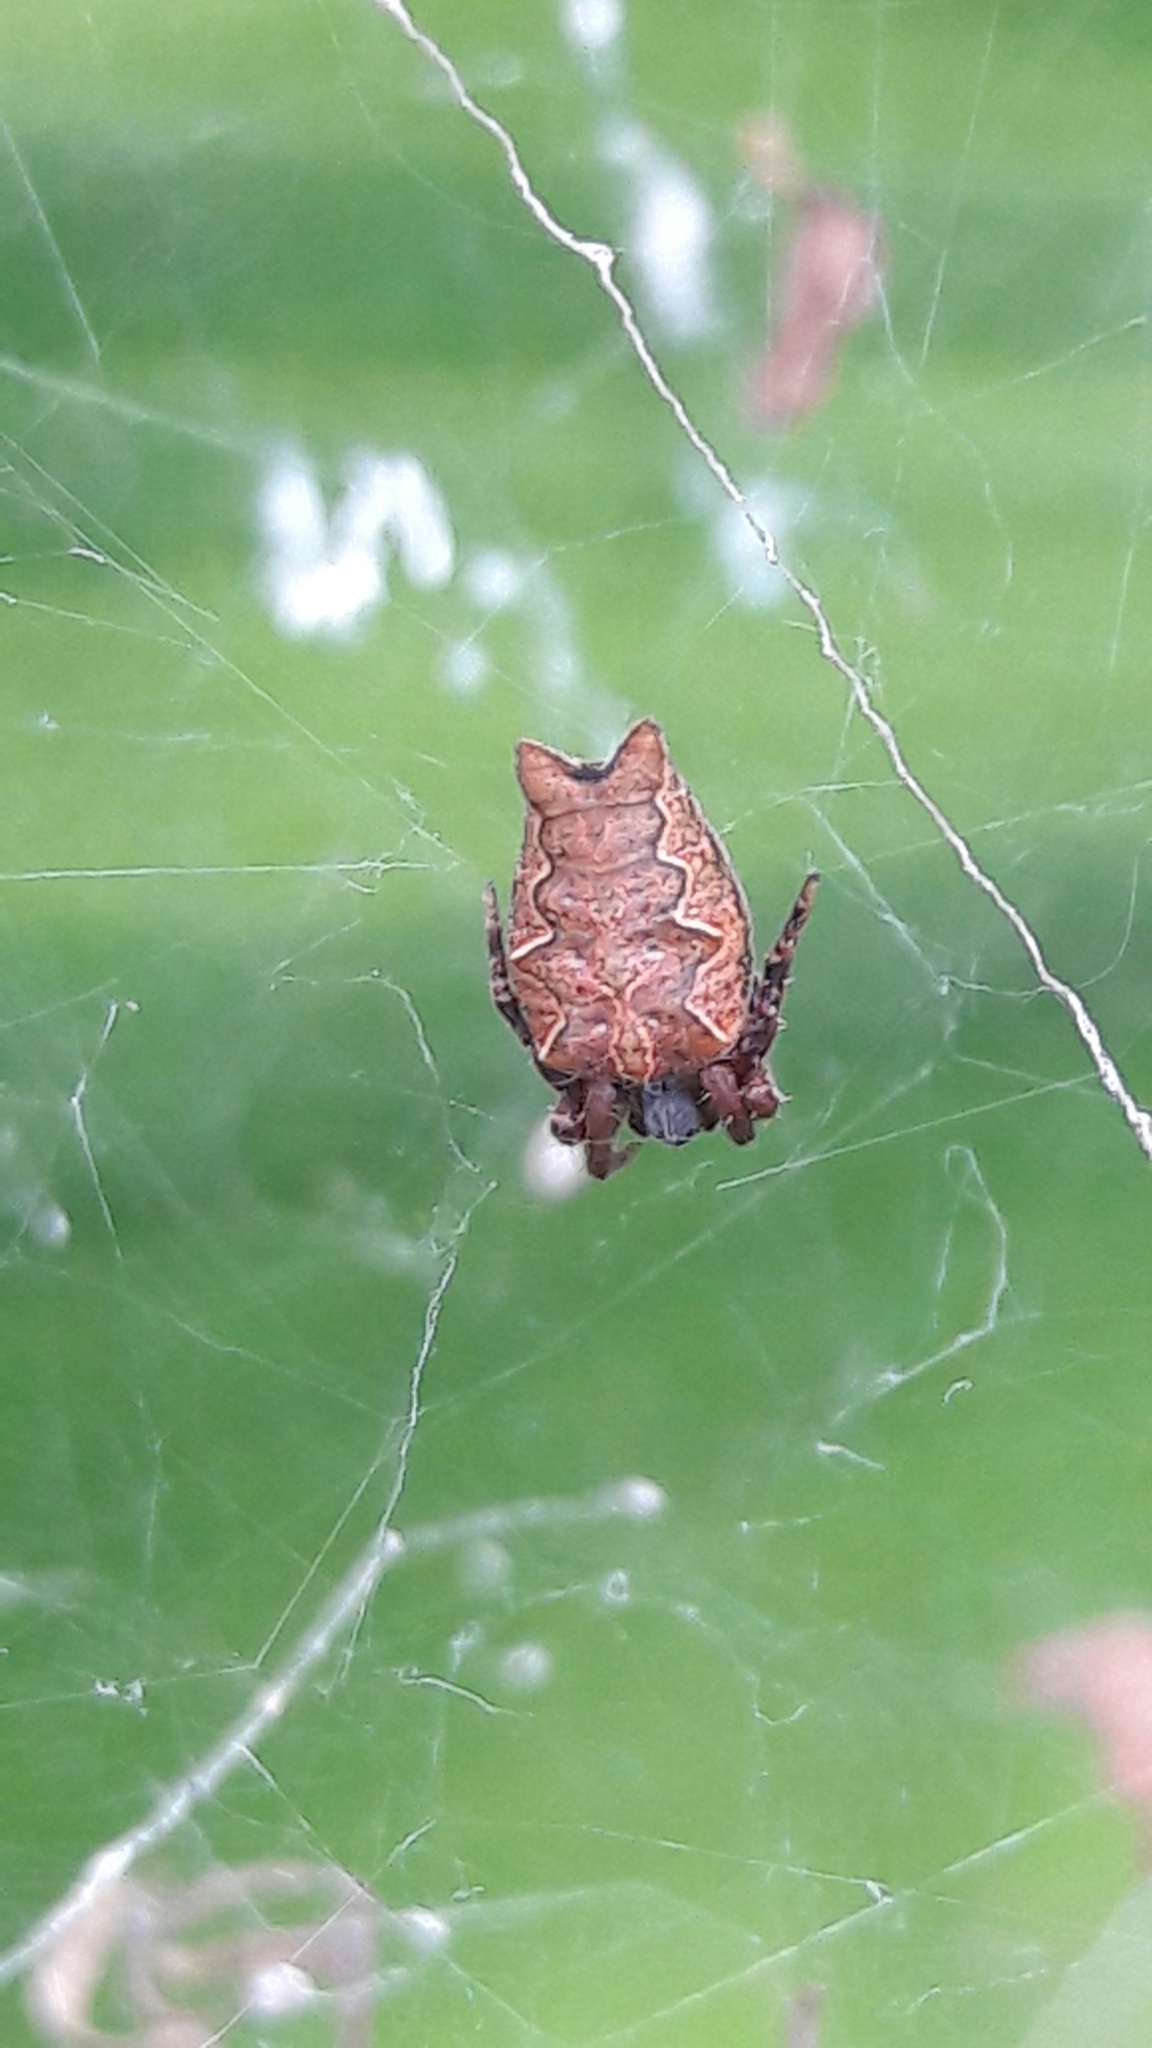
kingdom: Animalia
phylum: Arthropoda
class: Arachnida
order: Araneae
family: Araneidae
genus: Cyrtophora
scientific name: Cyrtophora citricola
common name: Orb weavers
